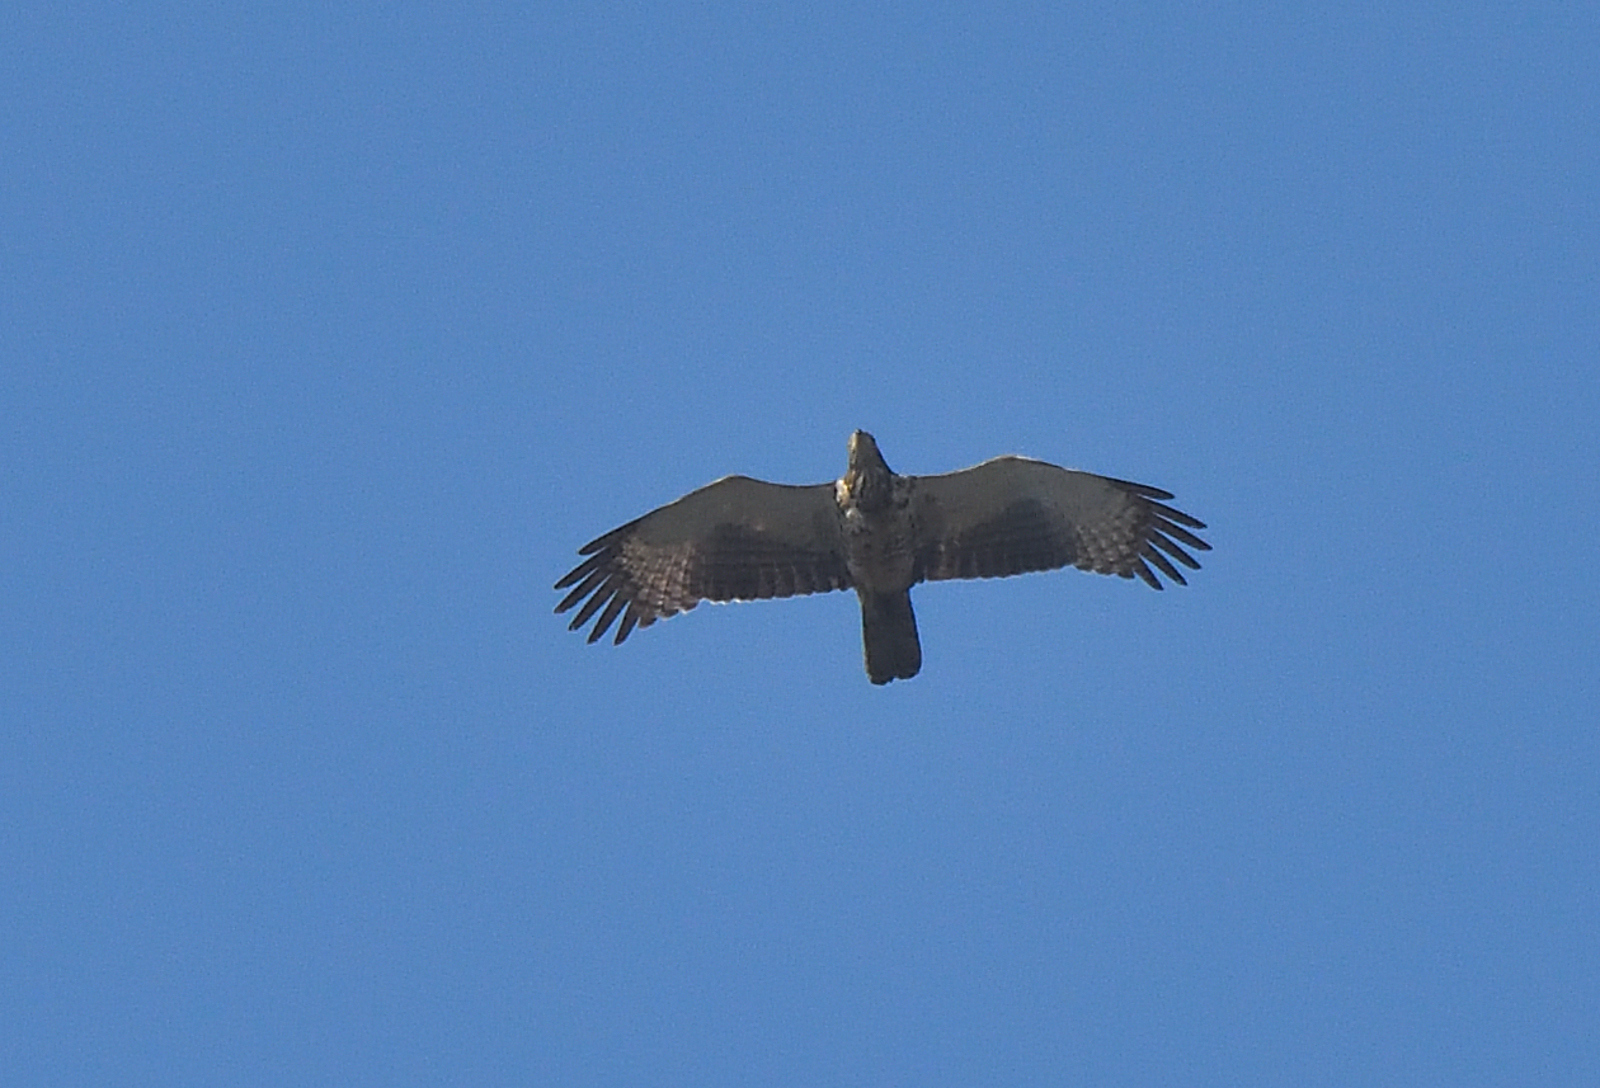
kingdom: Animalia
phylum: Chordata
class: Aves
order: Accipitriformes
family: Accipitridae
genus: Pernis
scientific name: Pernis ptilorhynchus
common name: Crested honey buzzard
